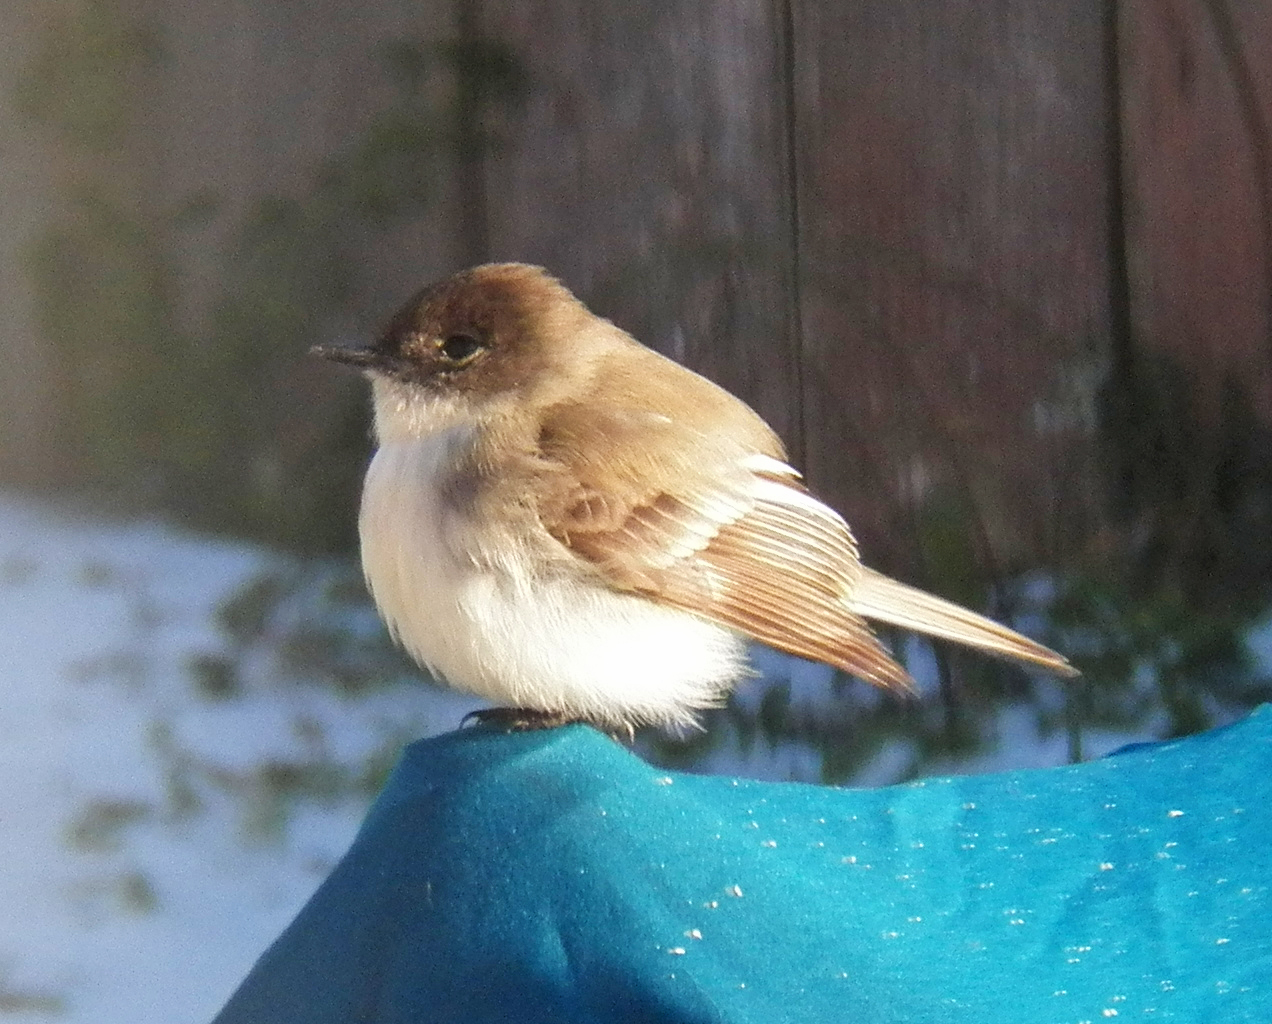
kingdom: Animalia
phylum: Chordata
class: Aves
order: Passeriformes
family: Tyrannidae
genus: Sayornis
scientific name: Sayornis phoebe
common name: Eastern phoebe
